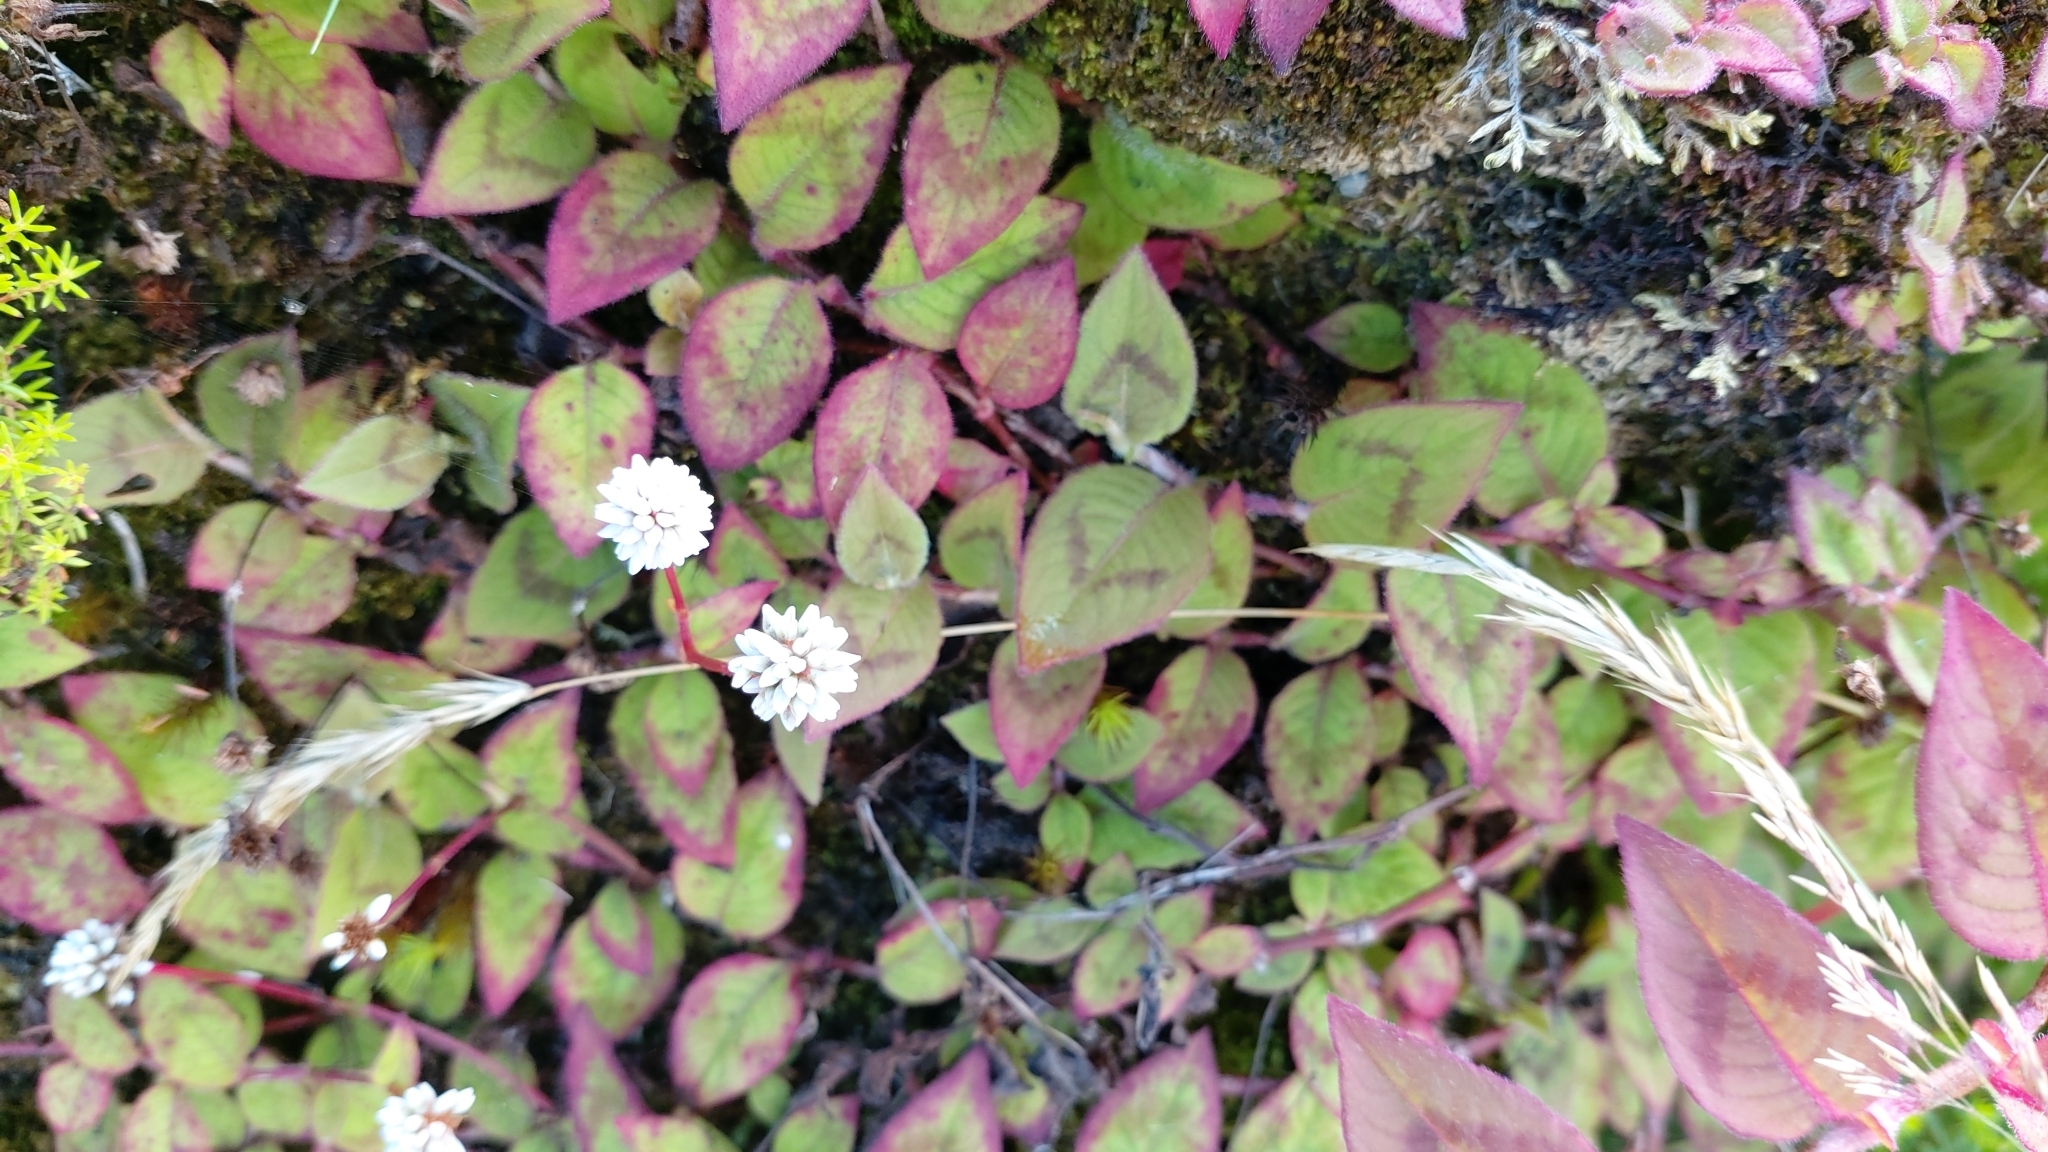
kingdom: Plantae
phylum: Tracheophyta
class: Magnoliopsida
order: Caryophyllales
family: Polygonaceae
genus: Persicaria
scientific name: Persicaria capitata
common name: Pinkhead smartweed
